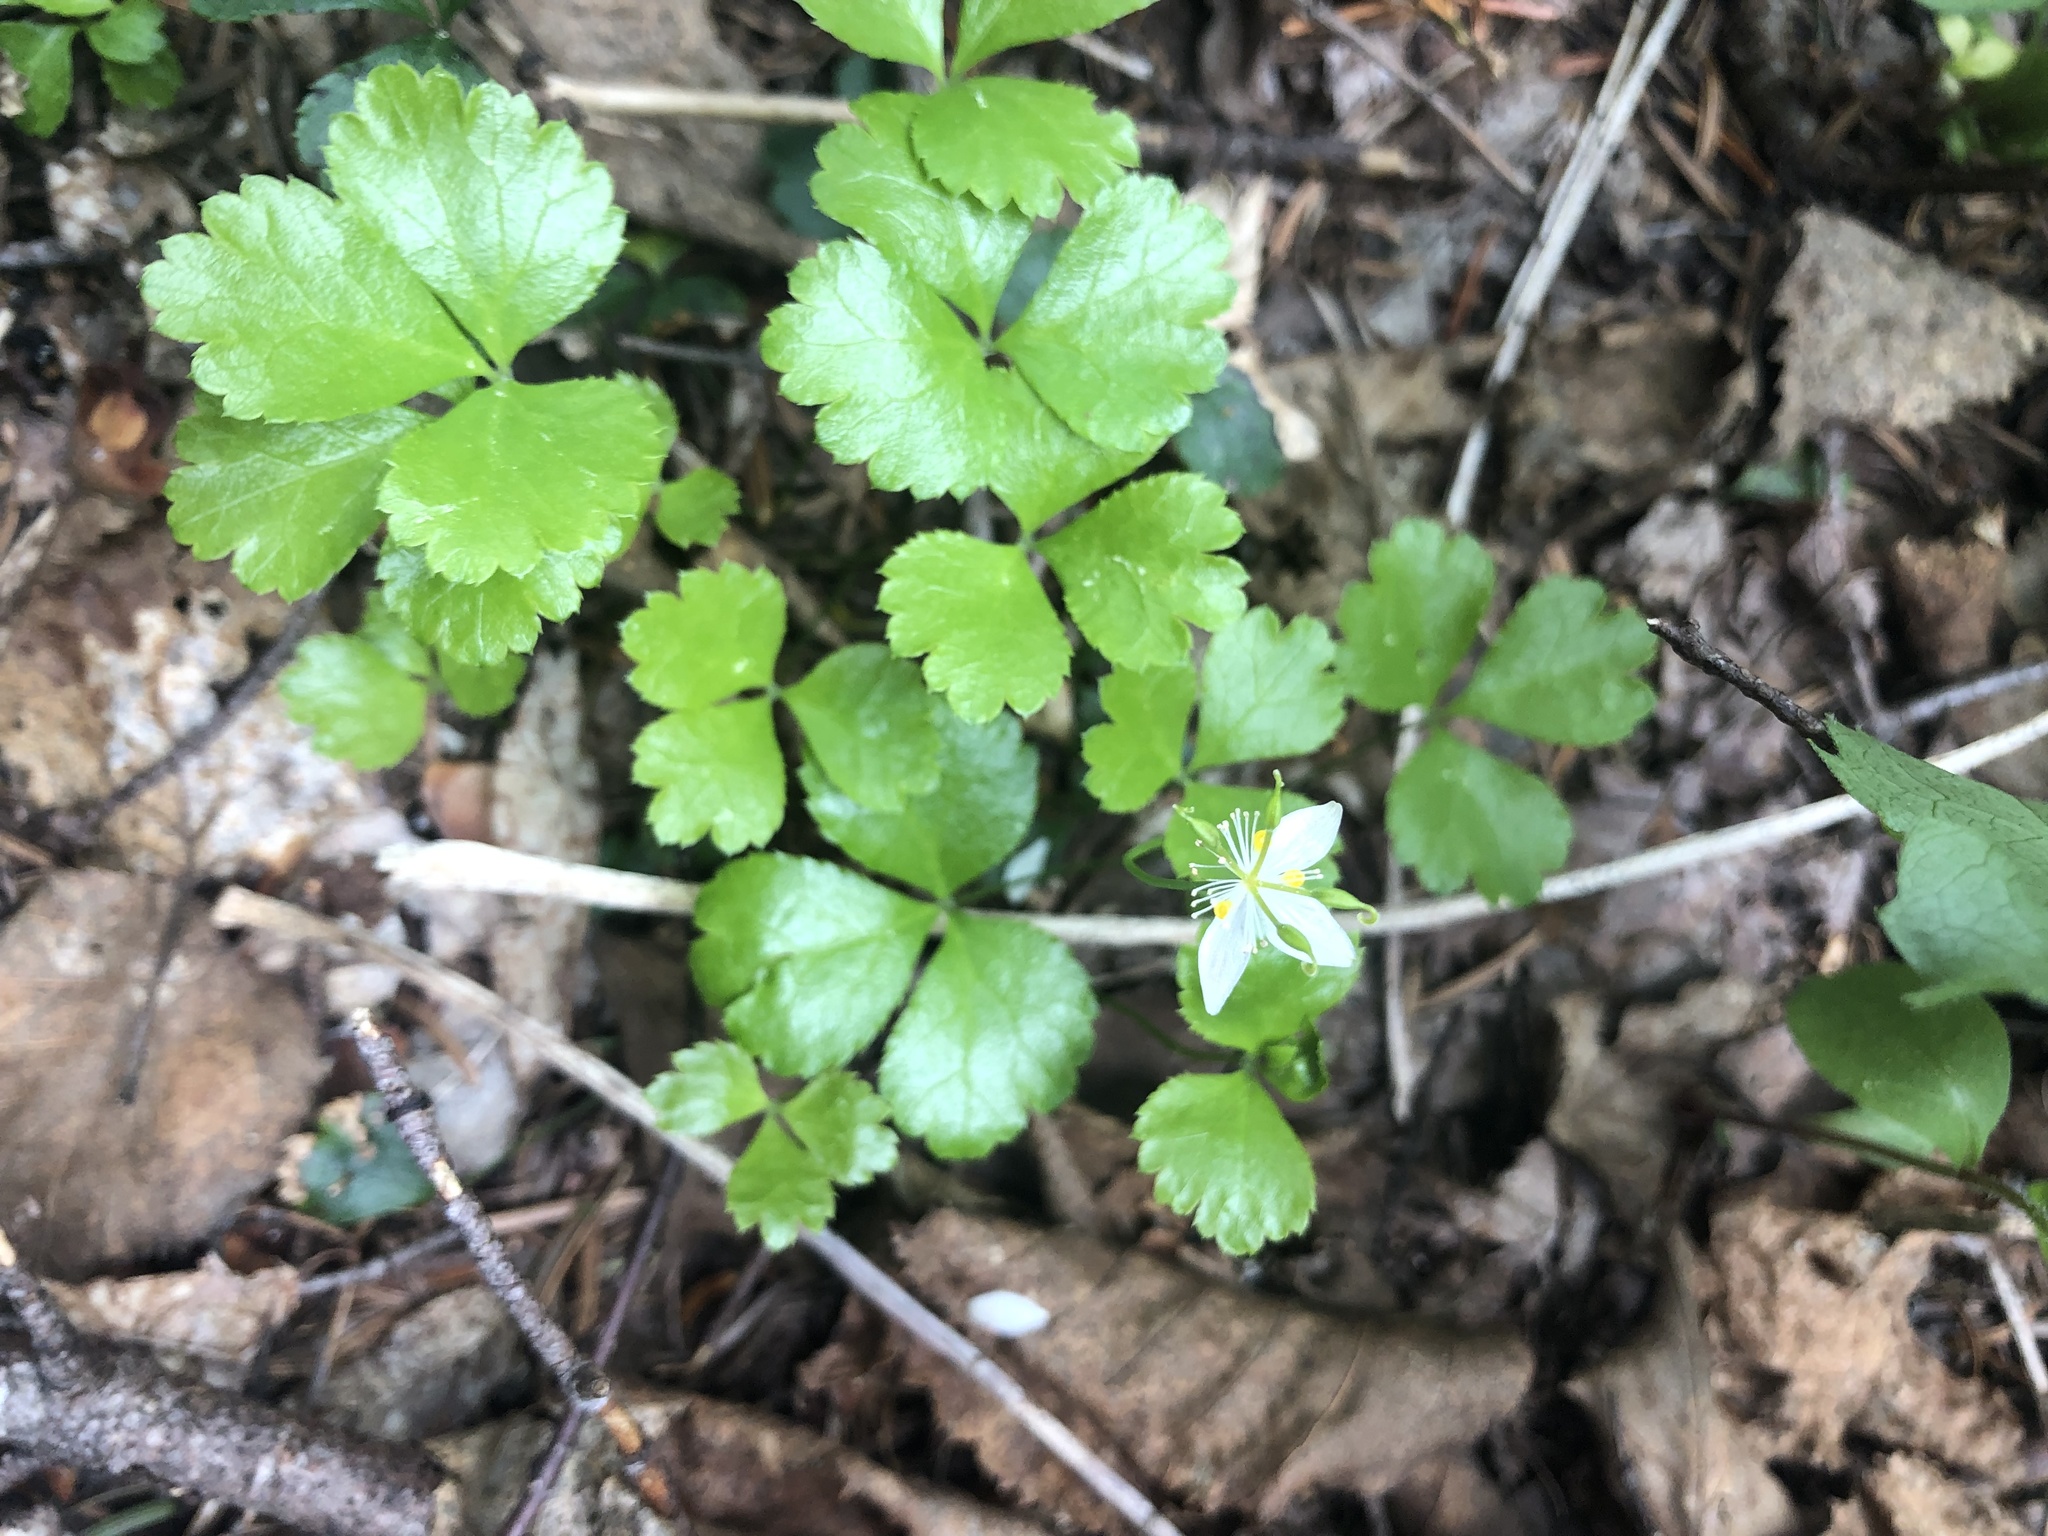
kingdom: Plantae
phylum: Tracheophyta
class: Magnoliopsida
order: Ranunculales
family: Ranunculaceae
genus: Coptis
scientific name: Coptis trifolia
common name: Canker-root
